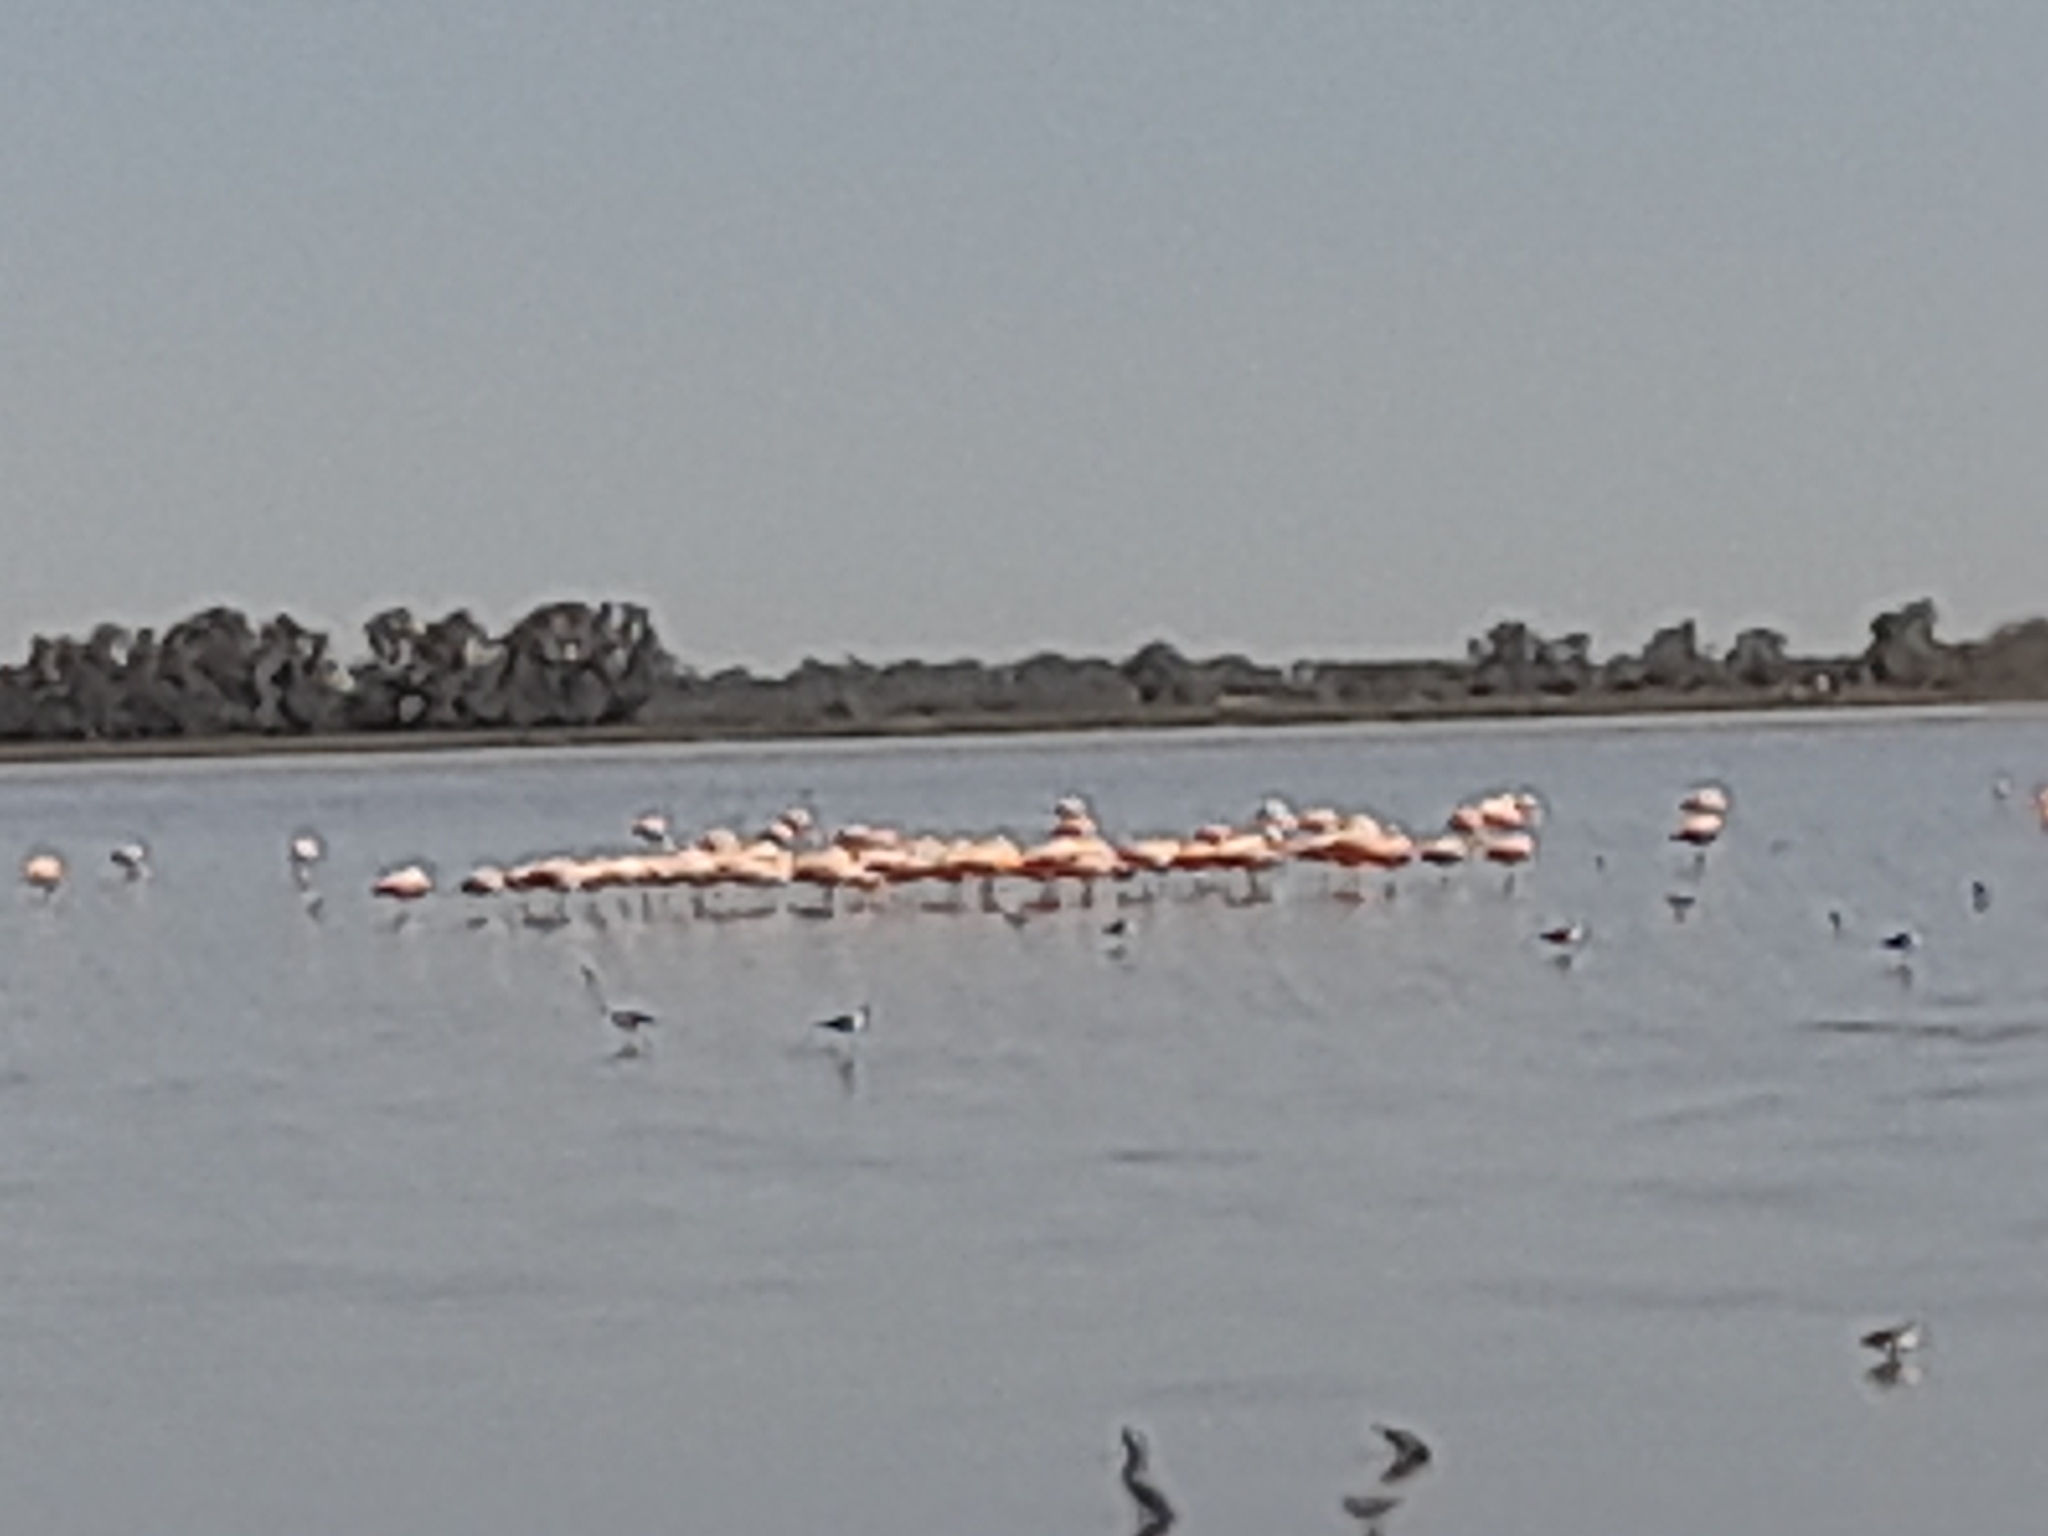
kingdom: Animalia
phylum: Chordata
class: Aves
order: Phoenicopteriformes
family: Phoenicopteridae
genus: Phoenicopterus
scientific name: Phoenicopterus chilensis
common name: Chilean flamingo
